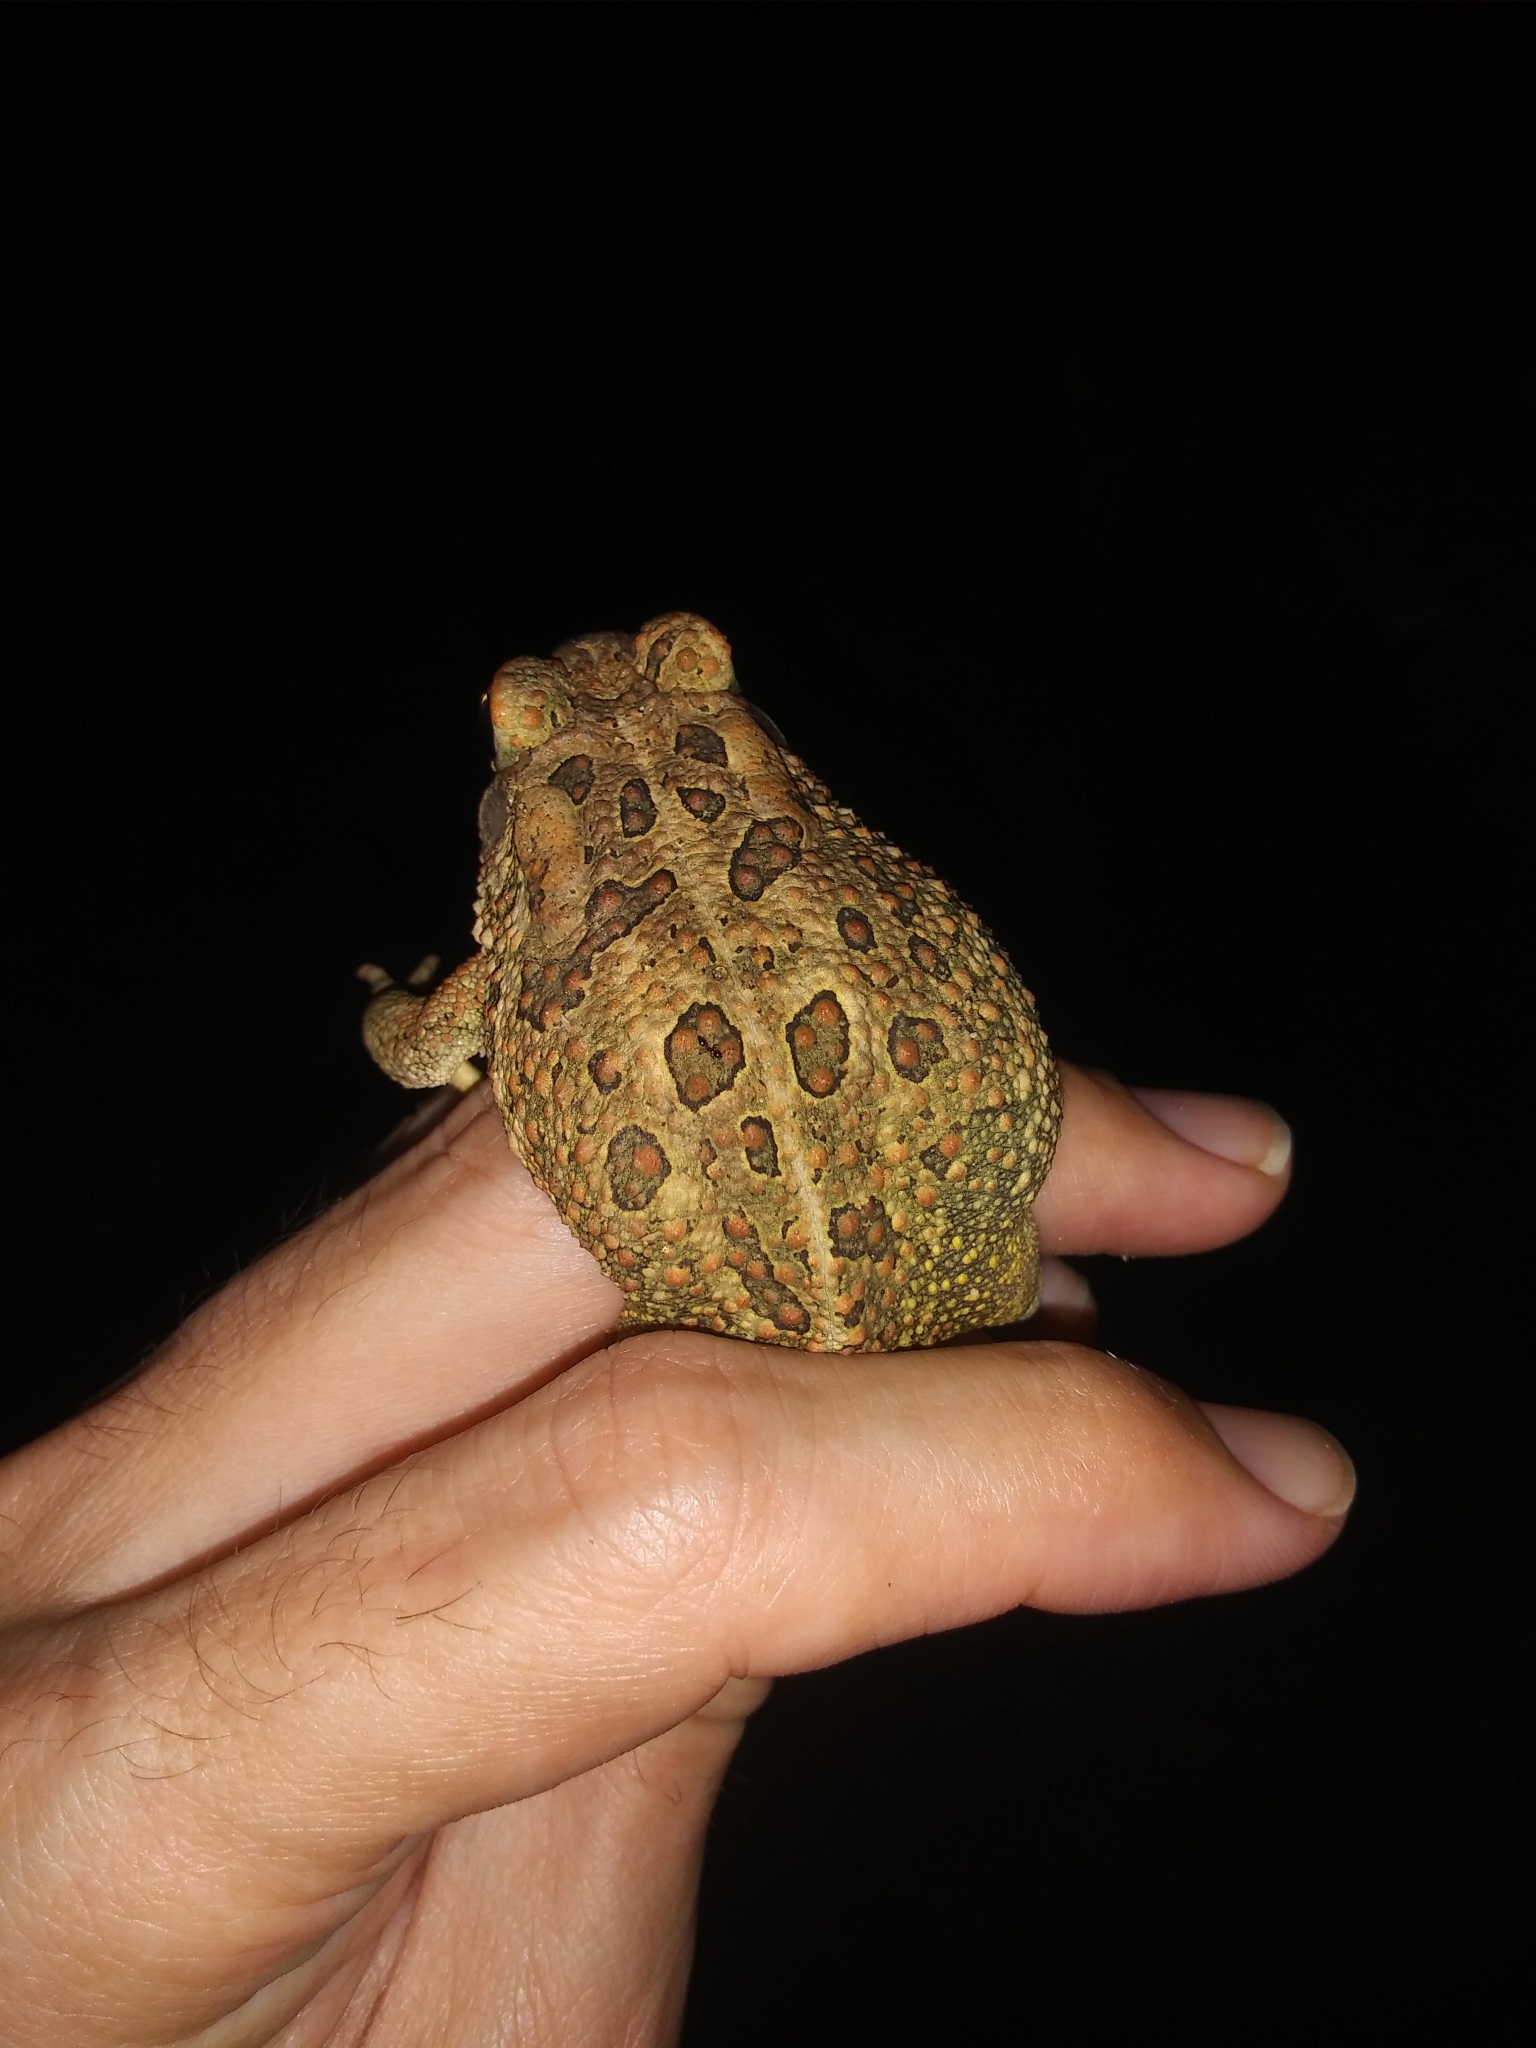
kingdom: Animalia
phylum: Chordata
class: Amphibia
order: Anura
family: Bufonidae
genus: Anaxyrus
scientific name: Anaxyrus fowleri
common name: Fowler's toad
